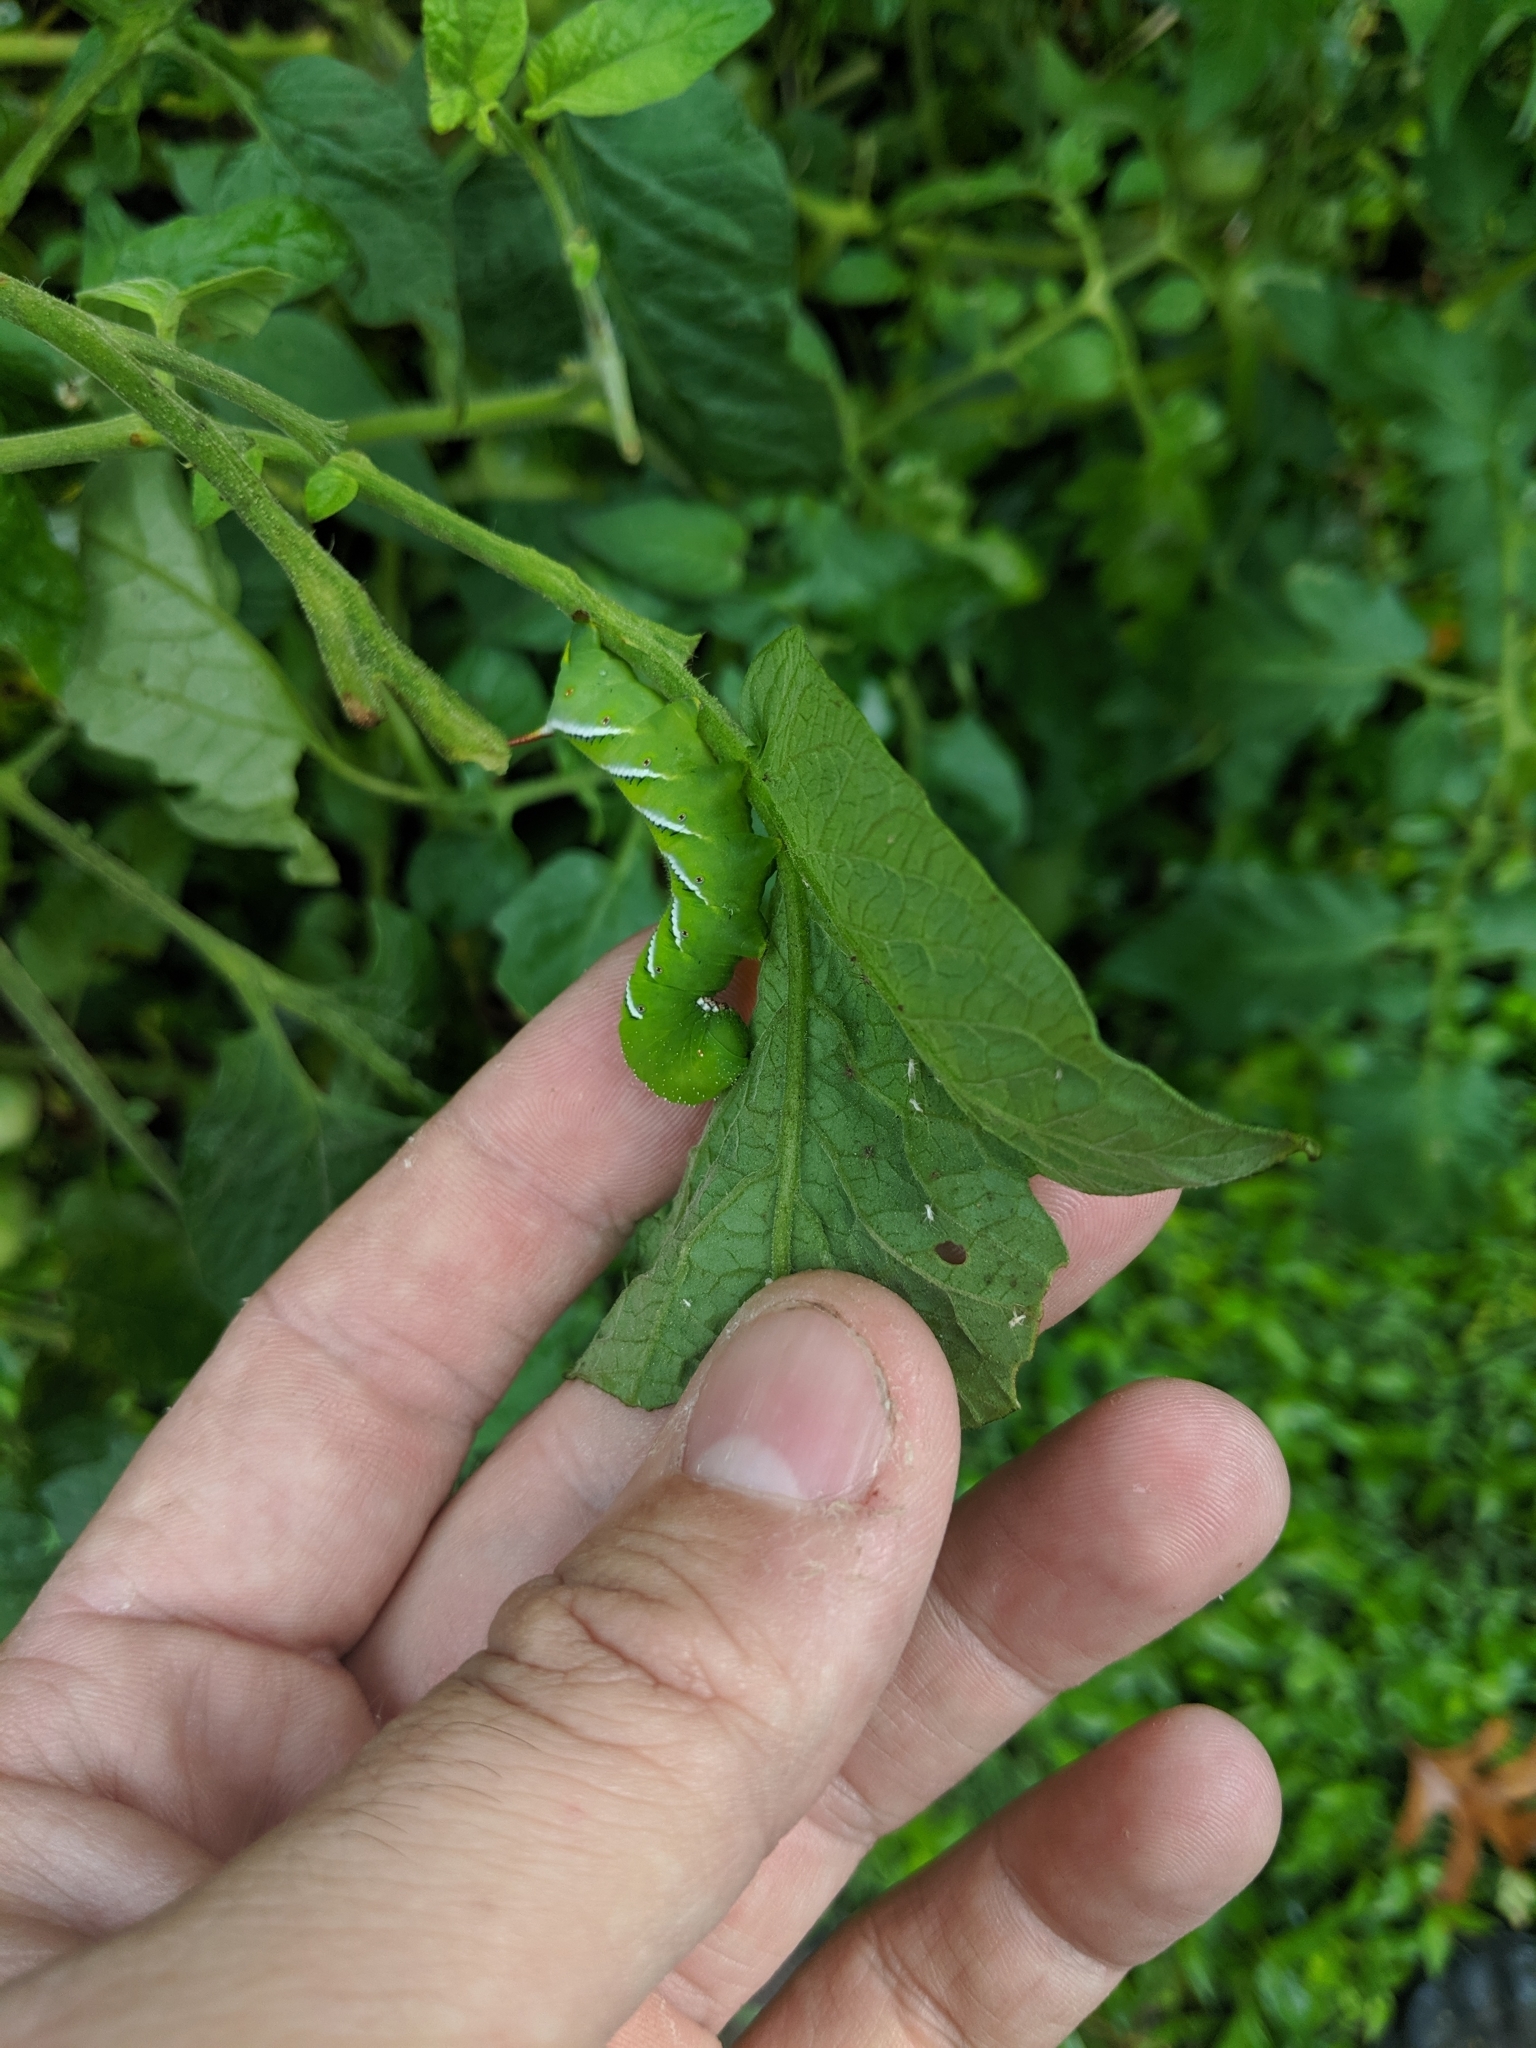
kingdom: Animalia
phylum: Arthropoda
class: Insecta
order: Lepidoptera
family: Sphingidae
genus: Manduca
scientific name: Manduca sexta
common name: Carolina sphinx
